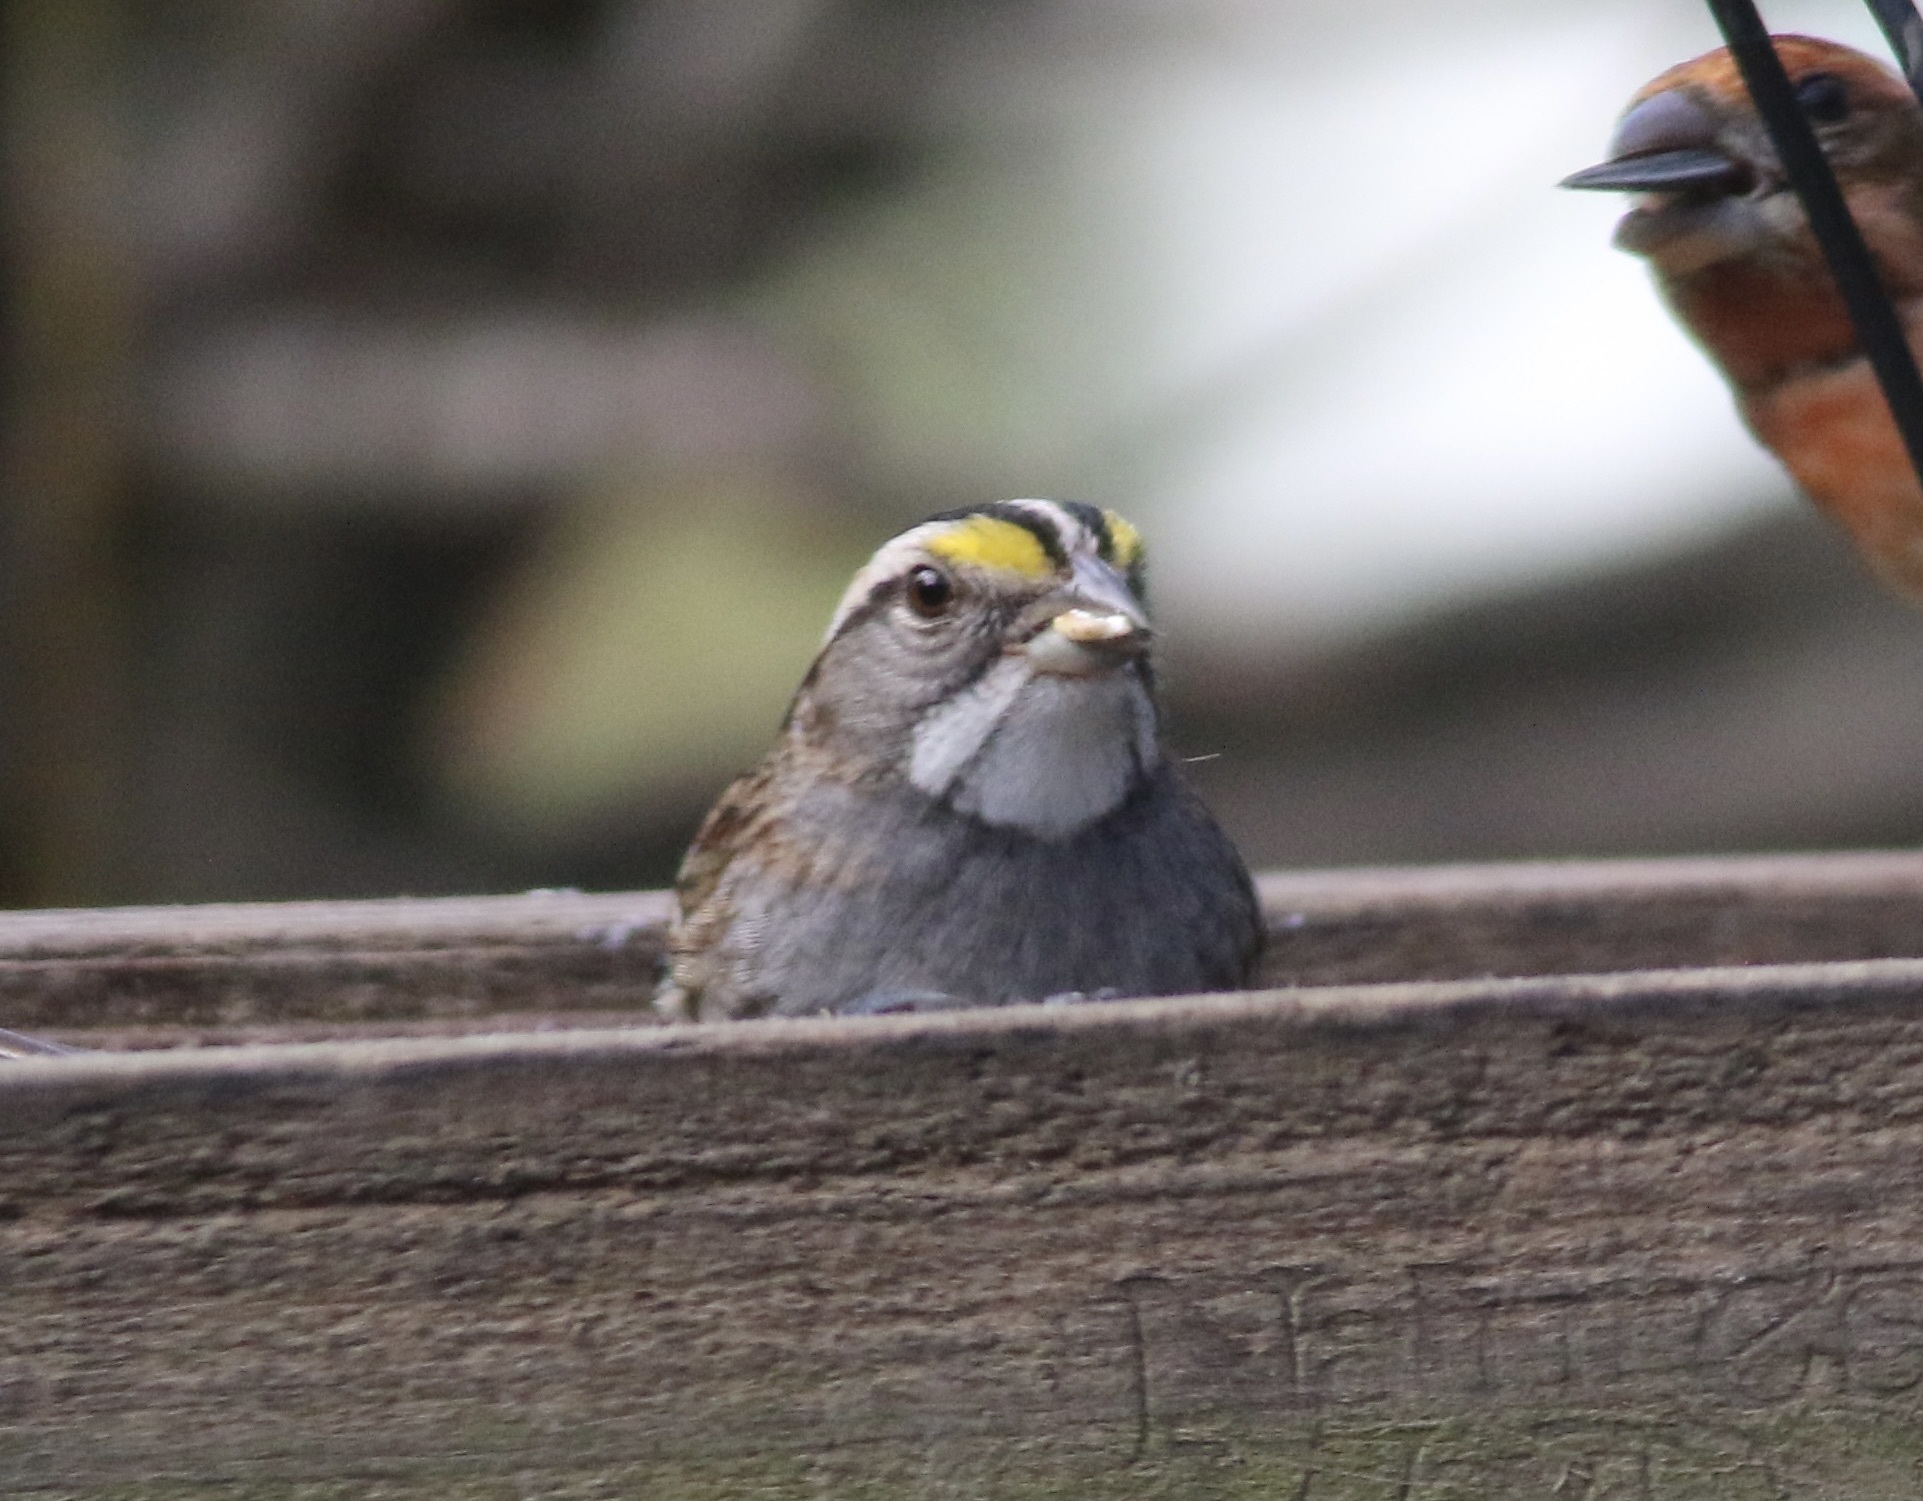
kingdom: Animalia
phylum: Chordata
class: Aves
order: Passeriformes
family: Passerellidae
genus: Zonotrichia
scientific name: Zonotrichia albicollis
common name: White-throated sparrow
